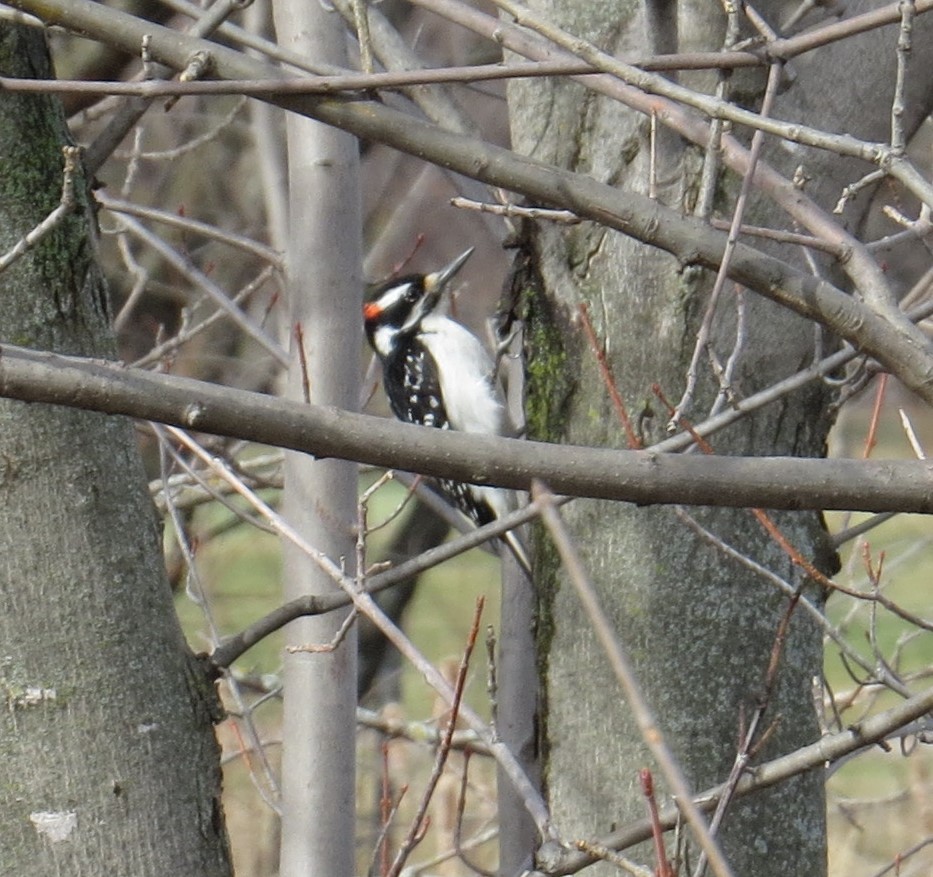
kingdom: Animalia
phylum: Chordata
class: Aves
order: Piciformes
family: Picidae
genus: Leuconotopicus
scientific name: Leuconotopicus villosus
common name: Hairy woodpecker
